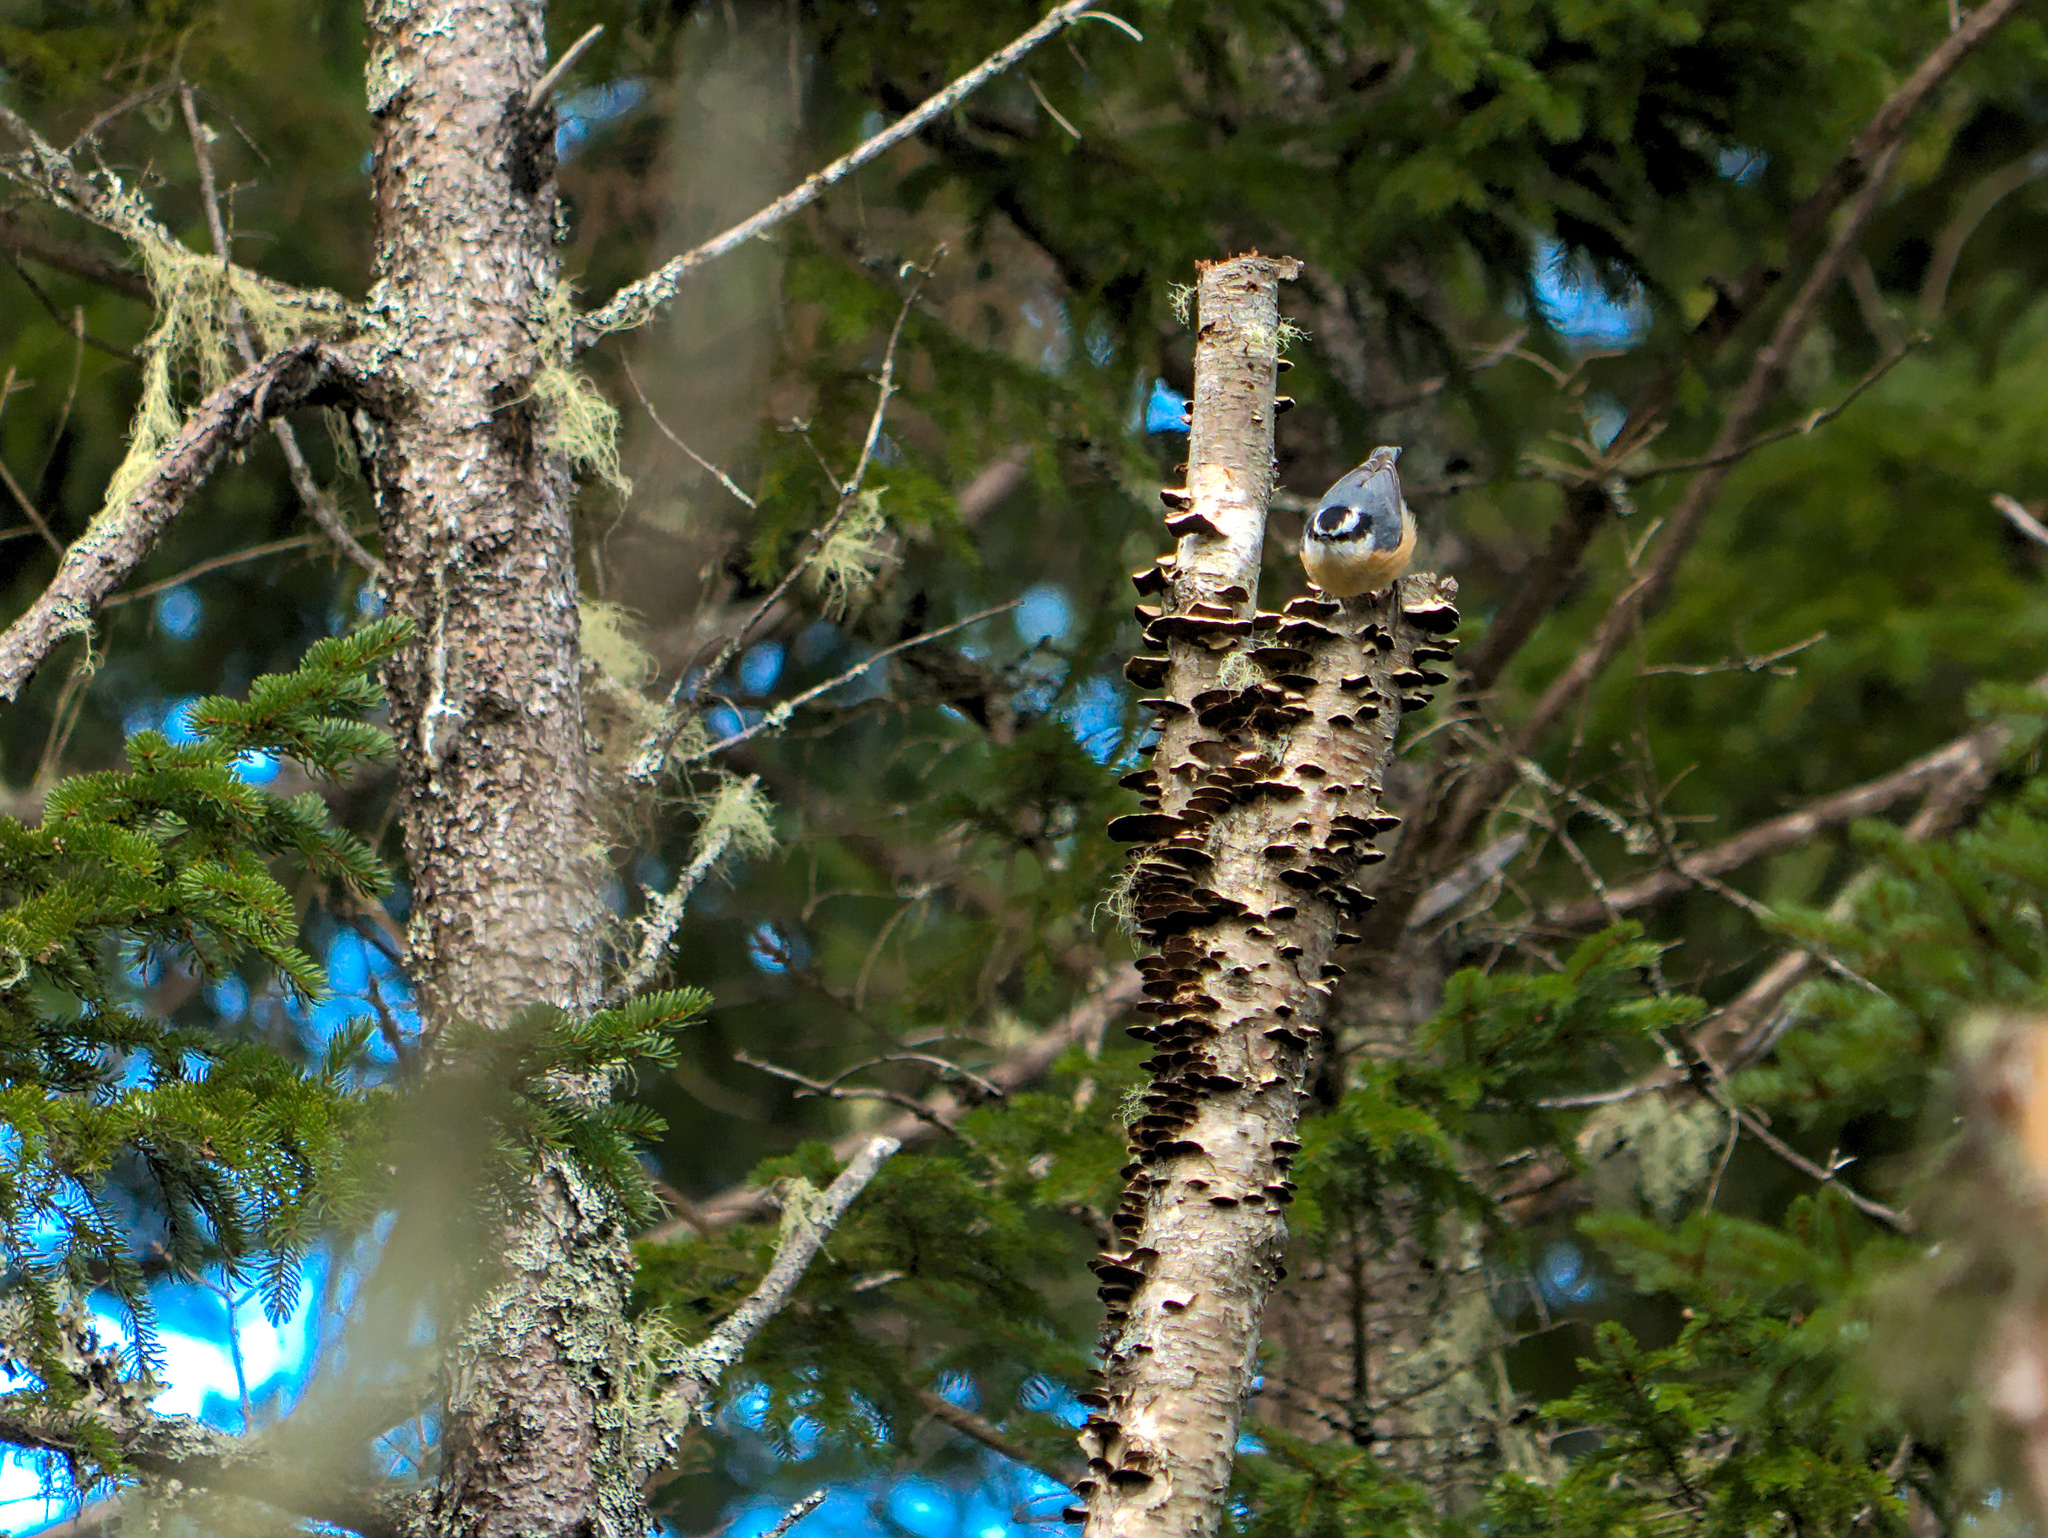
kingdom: Animalia
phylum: Chordata
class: Aves
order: Passeriformes
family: Sittidae
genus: Sitta
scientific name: Sitta canadensis
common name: Red-breasted nuthatch
